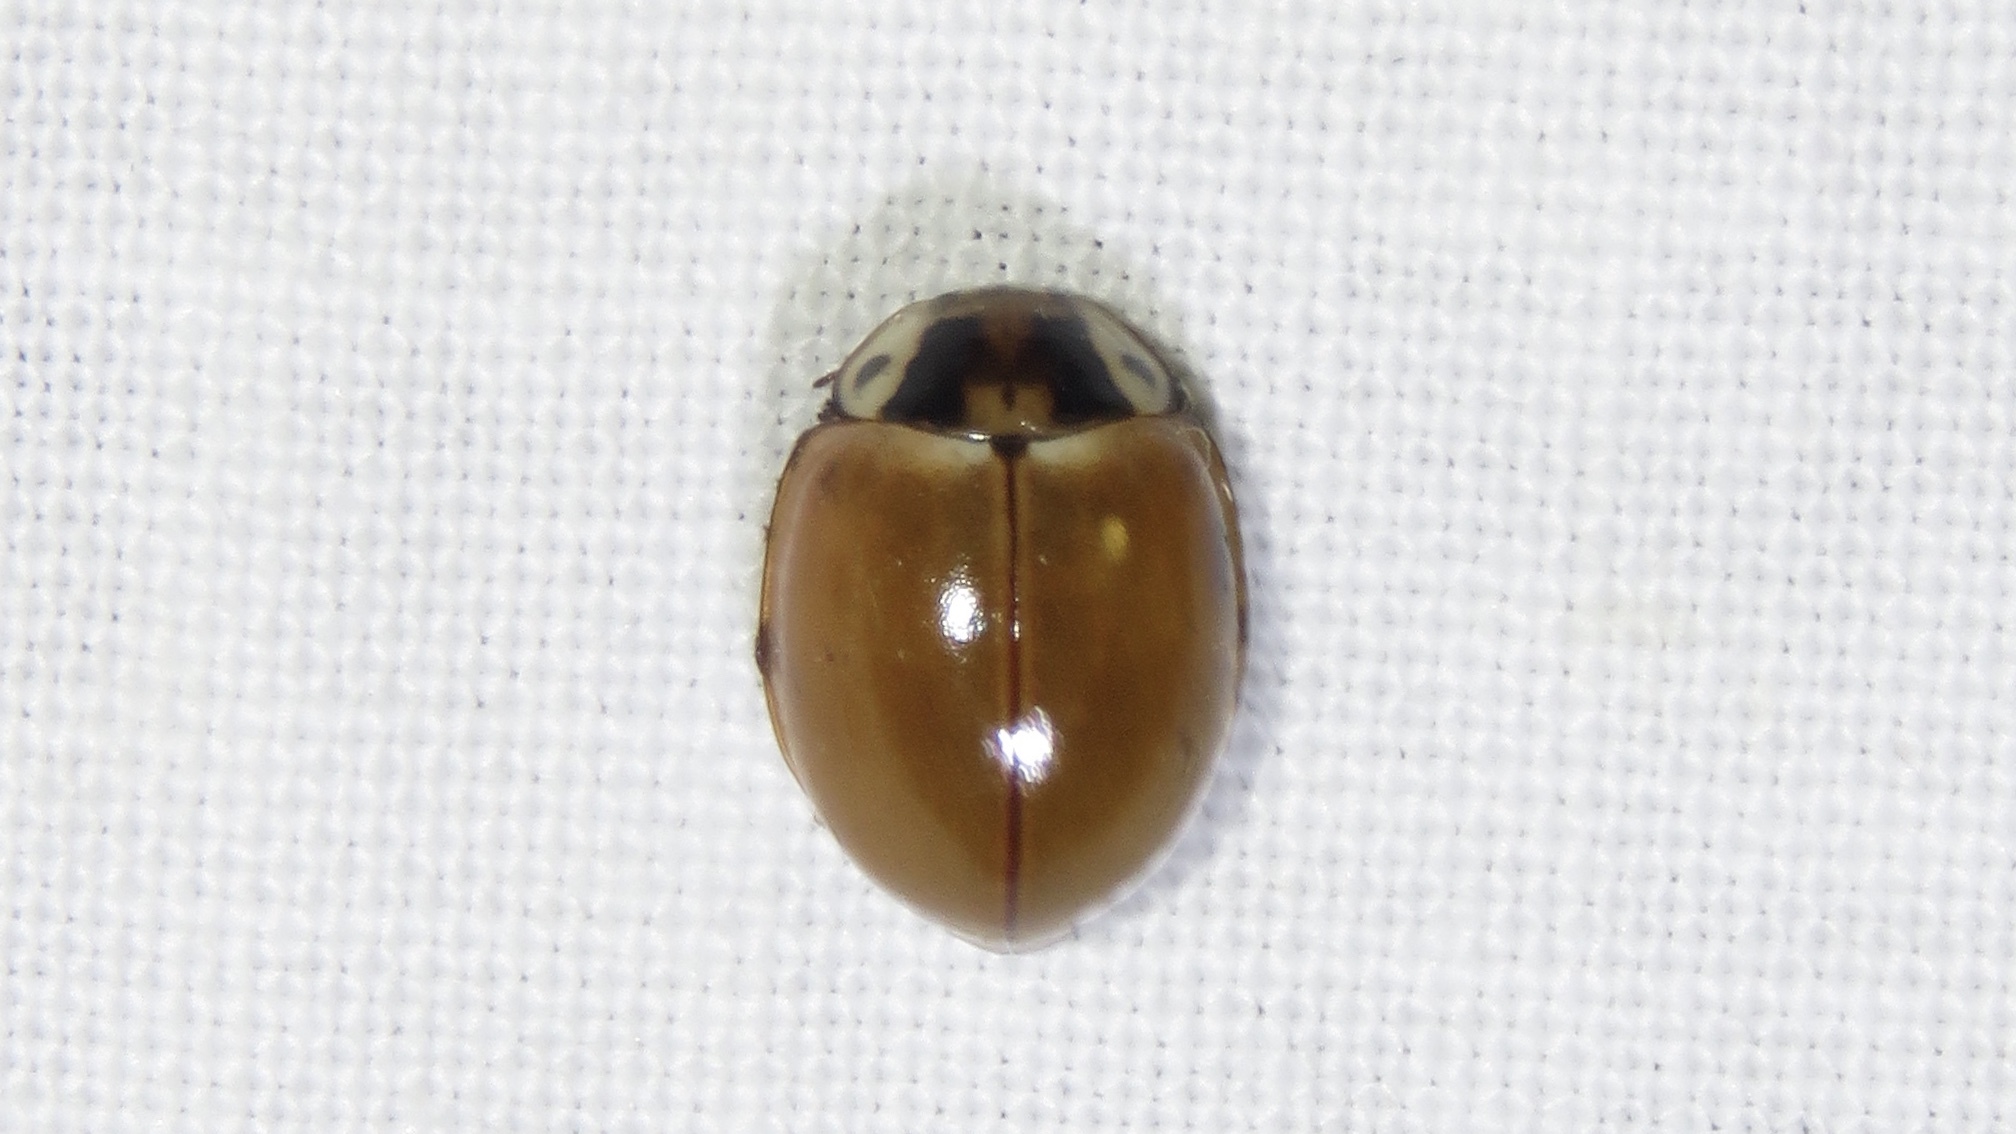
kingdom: Animalia
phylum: Arthropoda
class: Insecta
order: Coleoptera
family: Coccinellidae
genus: Myzia
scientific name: Myzia pullata
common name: Streaked lady beetle
